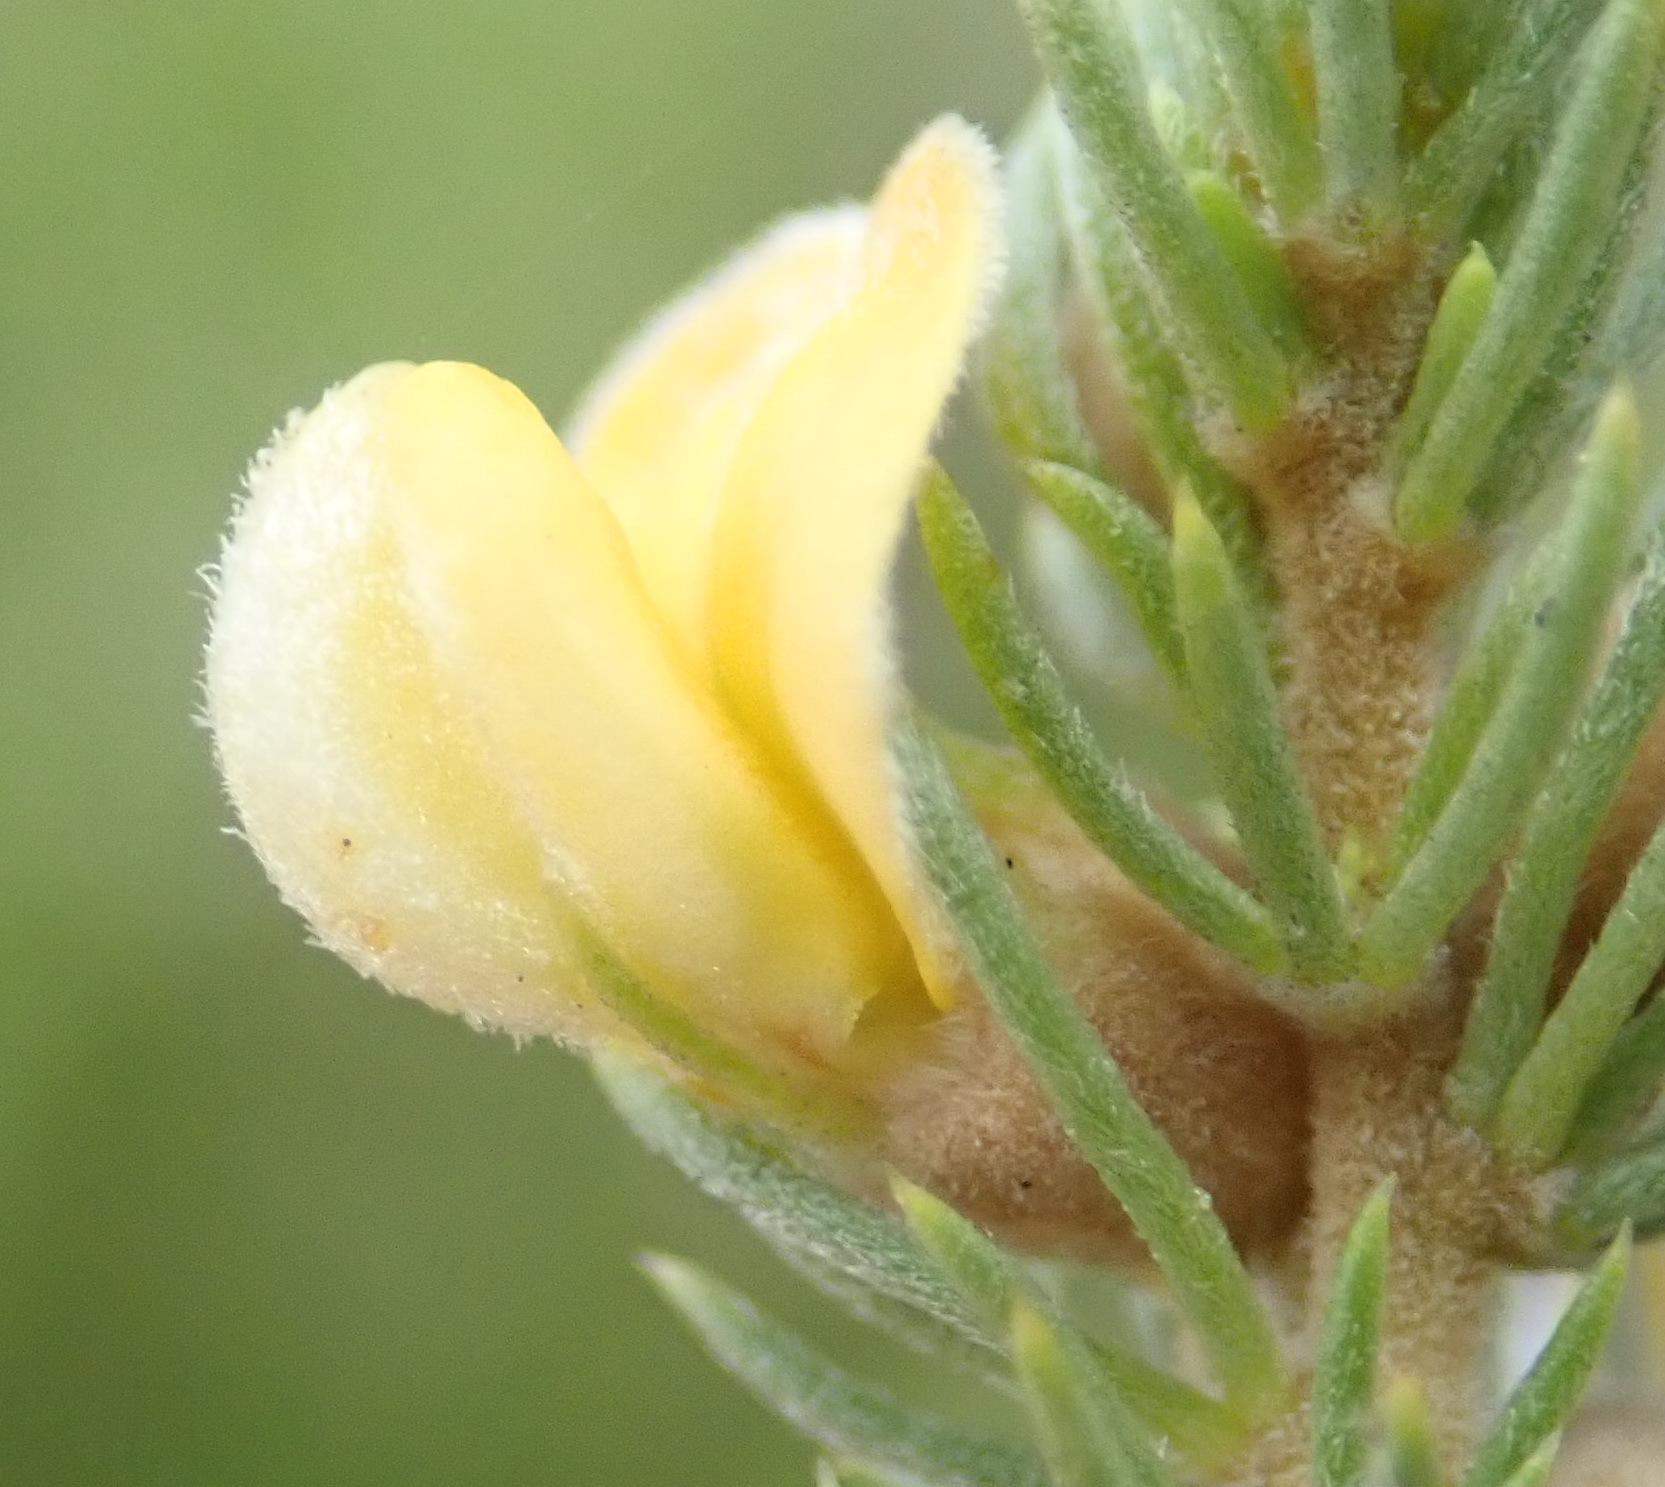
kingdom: Plantae
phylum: Tracheophyta
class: Magnoliopsida
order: Fabales
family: Fabaceae
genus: Aspalathus
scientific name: Aspalathus setacea
